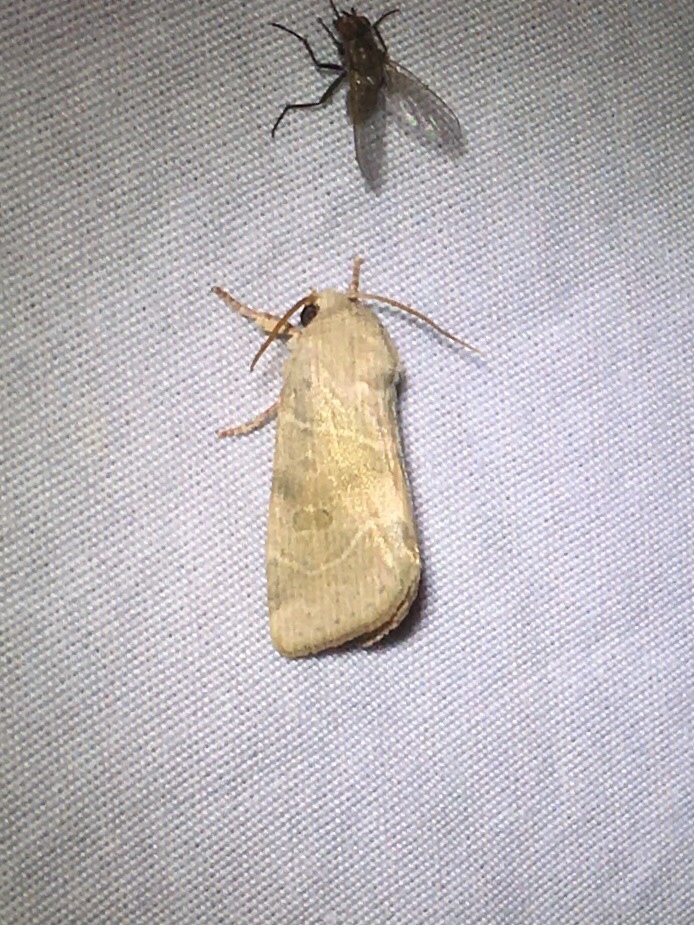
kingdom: Animalia
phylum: Arthropoda
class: Insecta
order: Lepidoptera
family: Noctuidae
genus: Cosmia
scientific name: Cosmia calami
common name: American dun-bar moth
